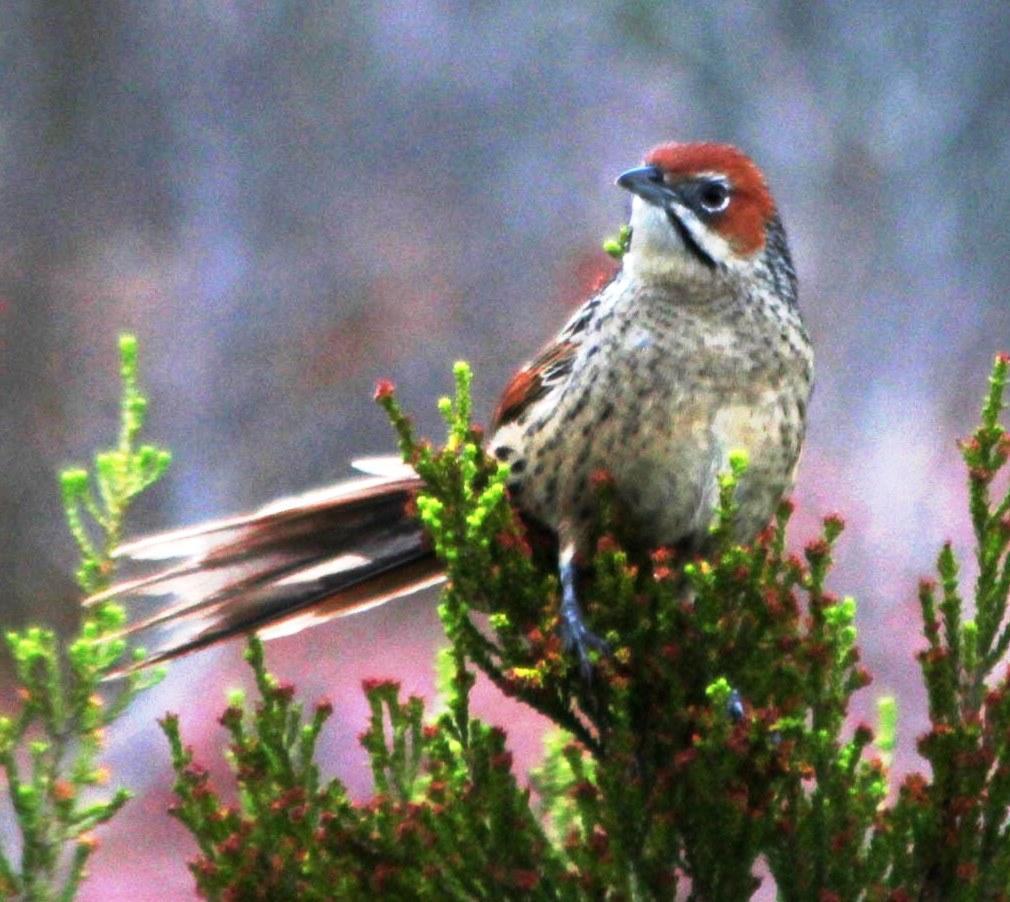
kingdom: Animalia
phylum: Chordata
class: Aves
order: Passeriformes
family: Macrosphenidae
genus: Sphenoeacus
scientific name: Sphenoeacus afer
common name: Cape grassbird
